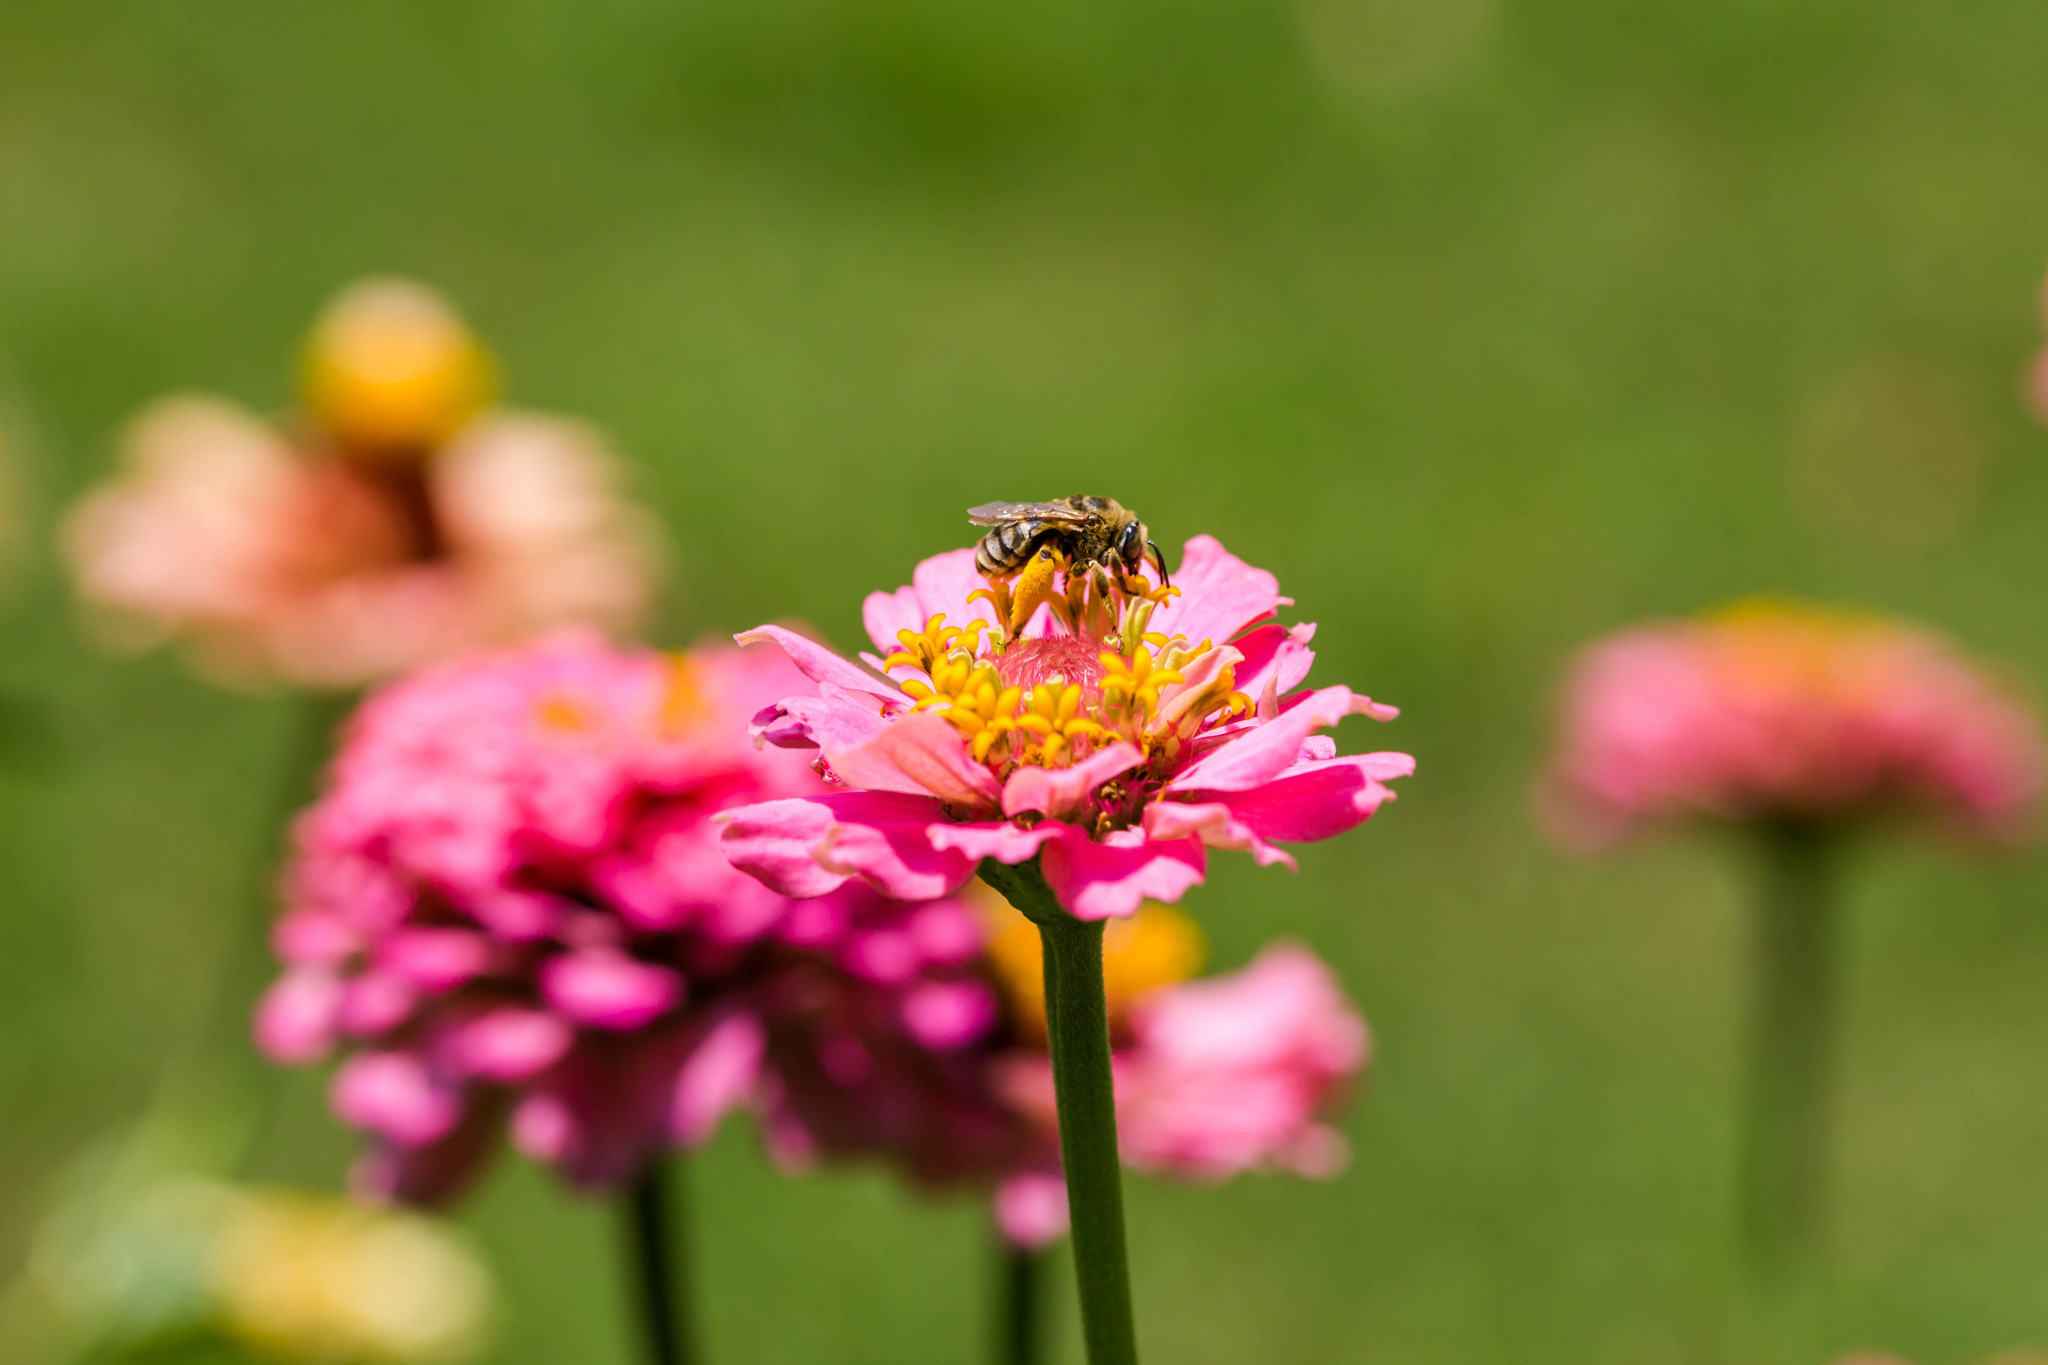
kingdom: Animalia
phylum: Arthropoda
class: Insecta
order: Hymenoptera
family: Apidae
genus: Svastra
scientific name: Svastra petulca
